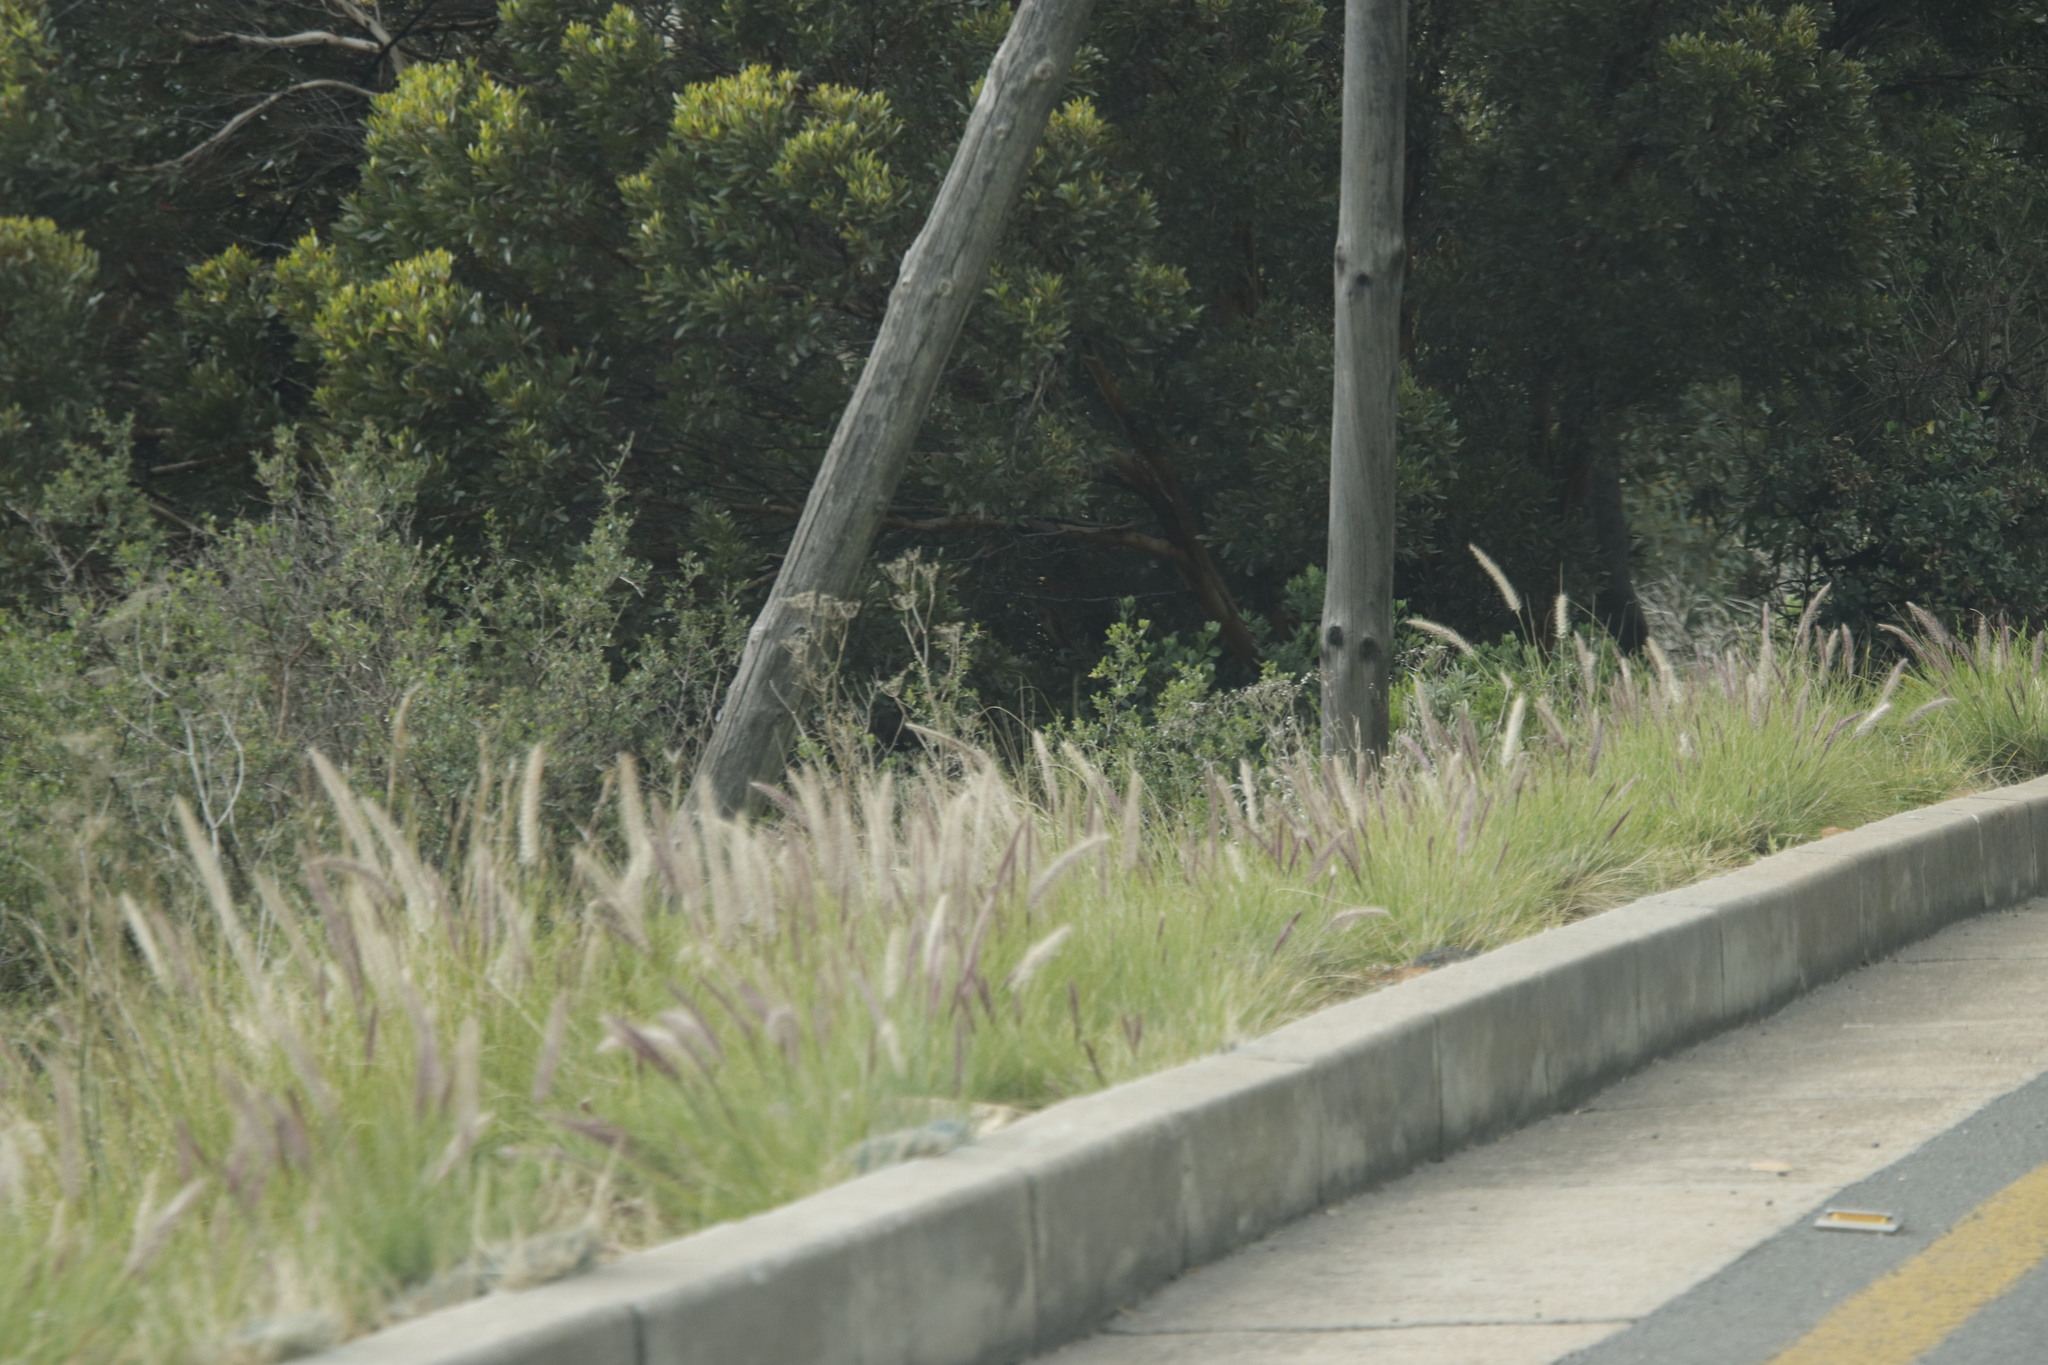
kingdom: Plantae
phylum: Tracheophyta
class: Liliopsida
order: Poales
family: Poaceae
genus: Cenchrus
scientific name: Cenchrus setaceus
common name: Crimson fountaingrass
